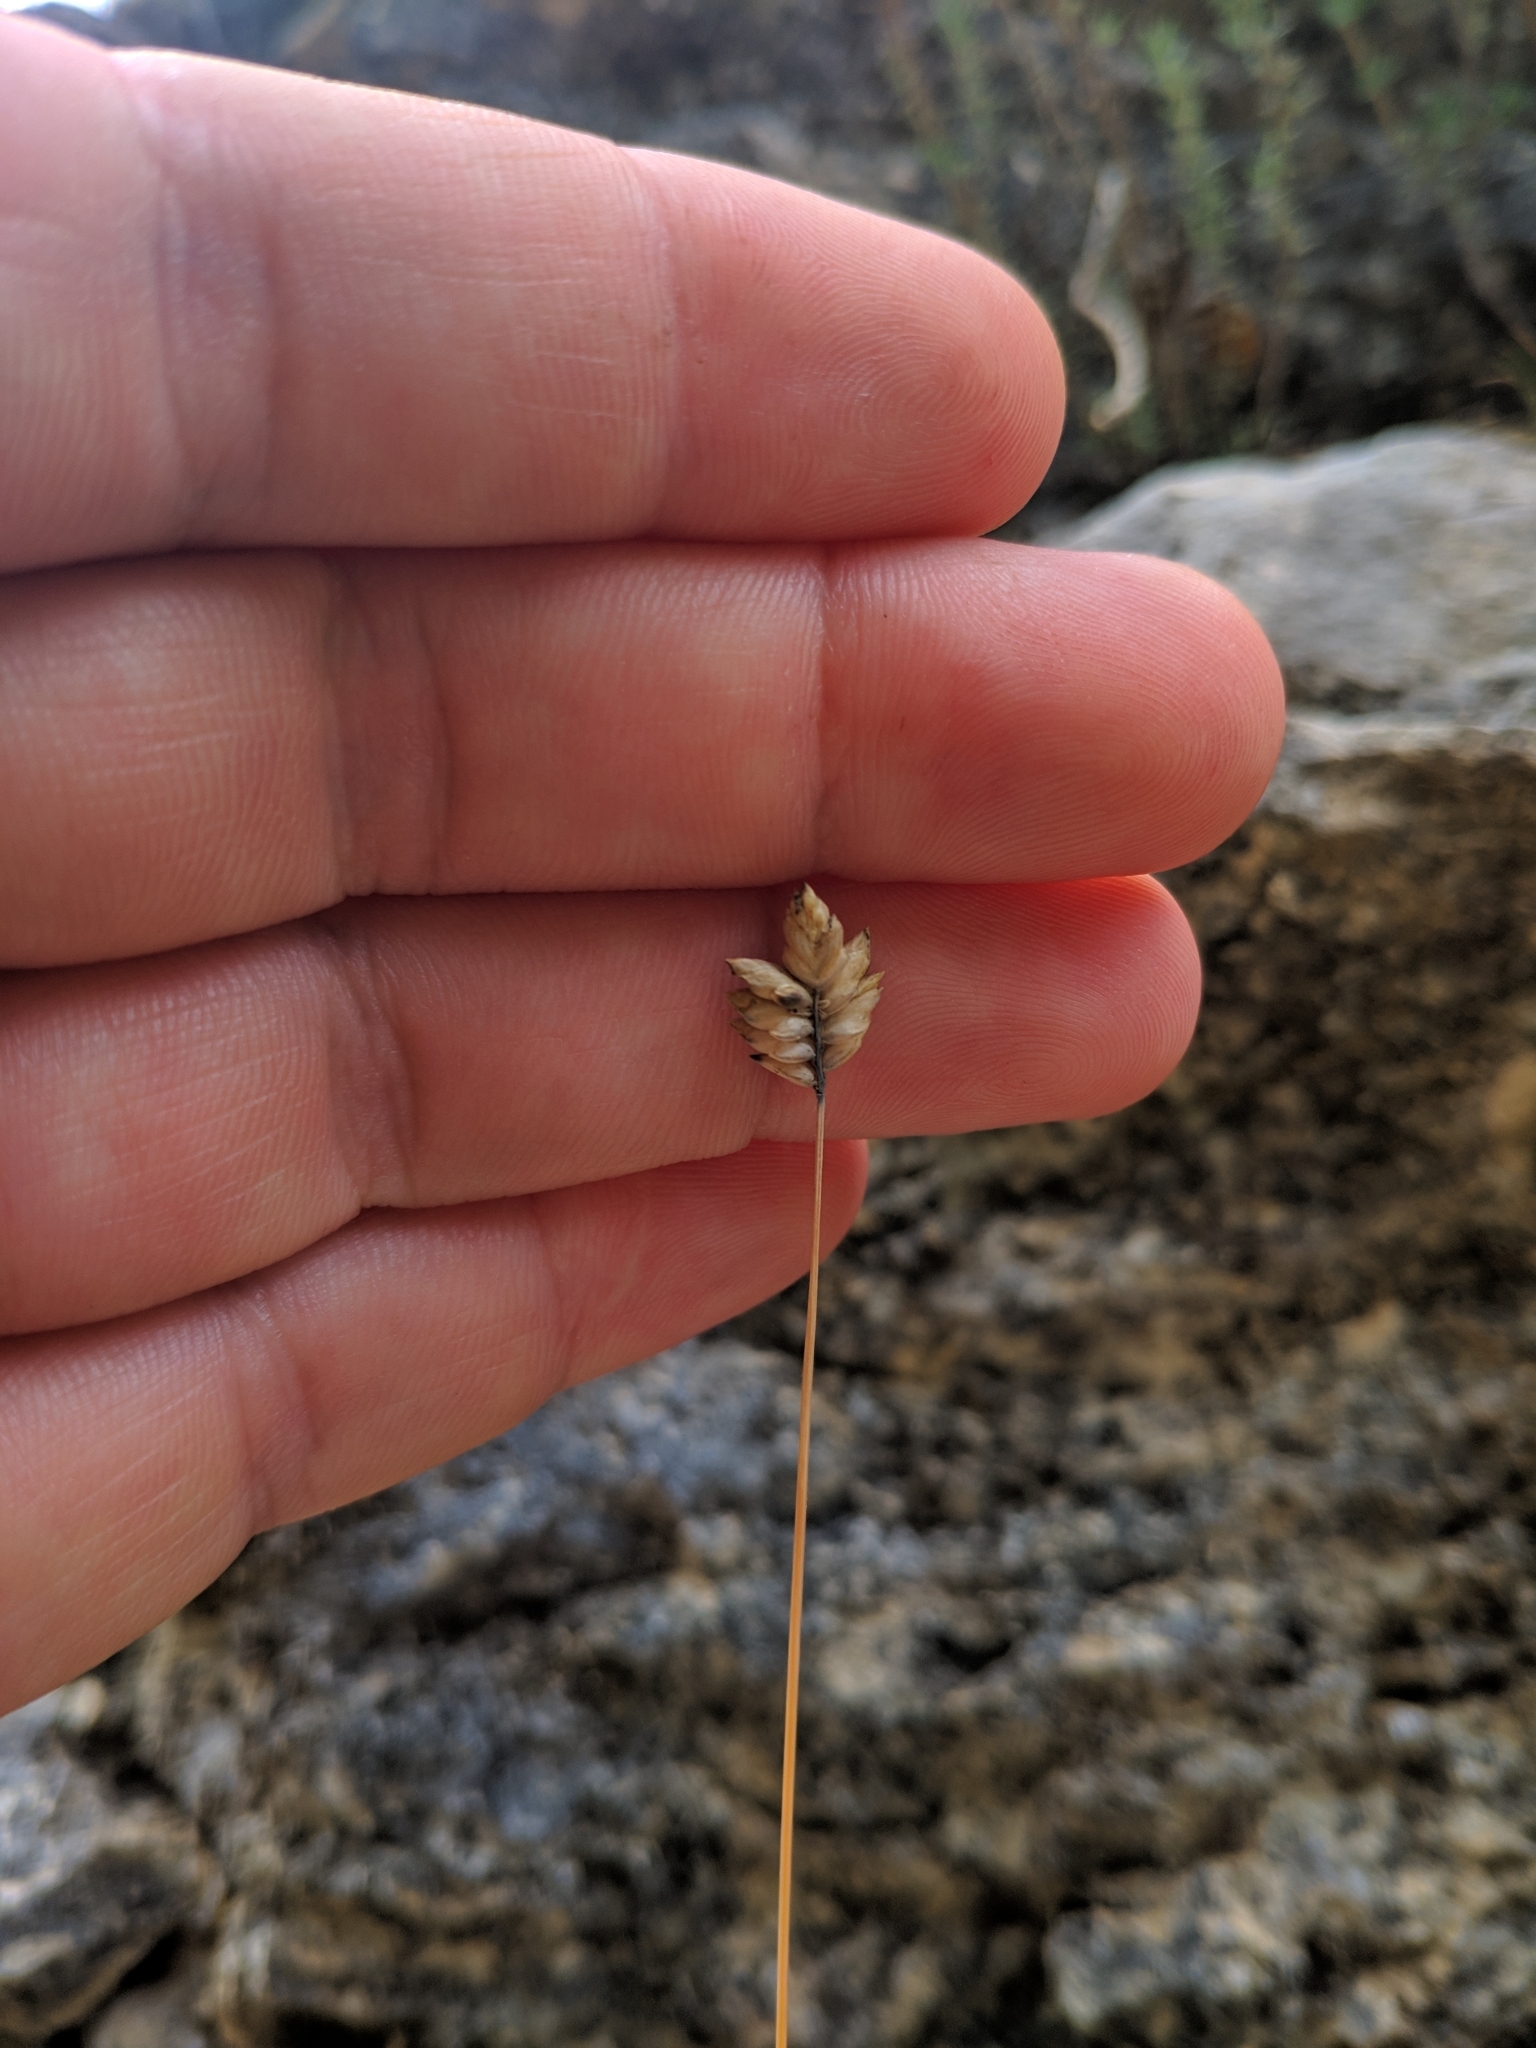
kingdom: Plantae
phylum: Tracheophyta
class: Liliopsida
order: Poales
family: Poaceae
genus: Oreochloa
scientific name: Oreochloa confusa
